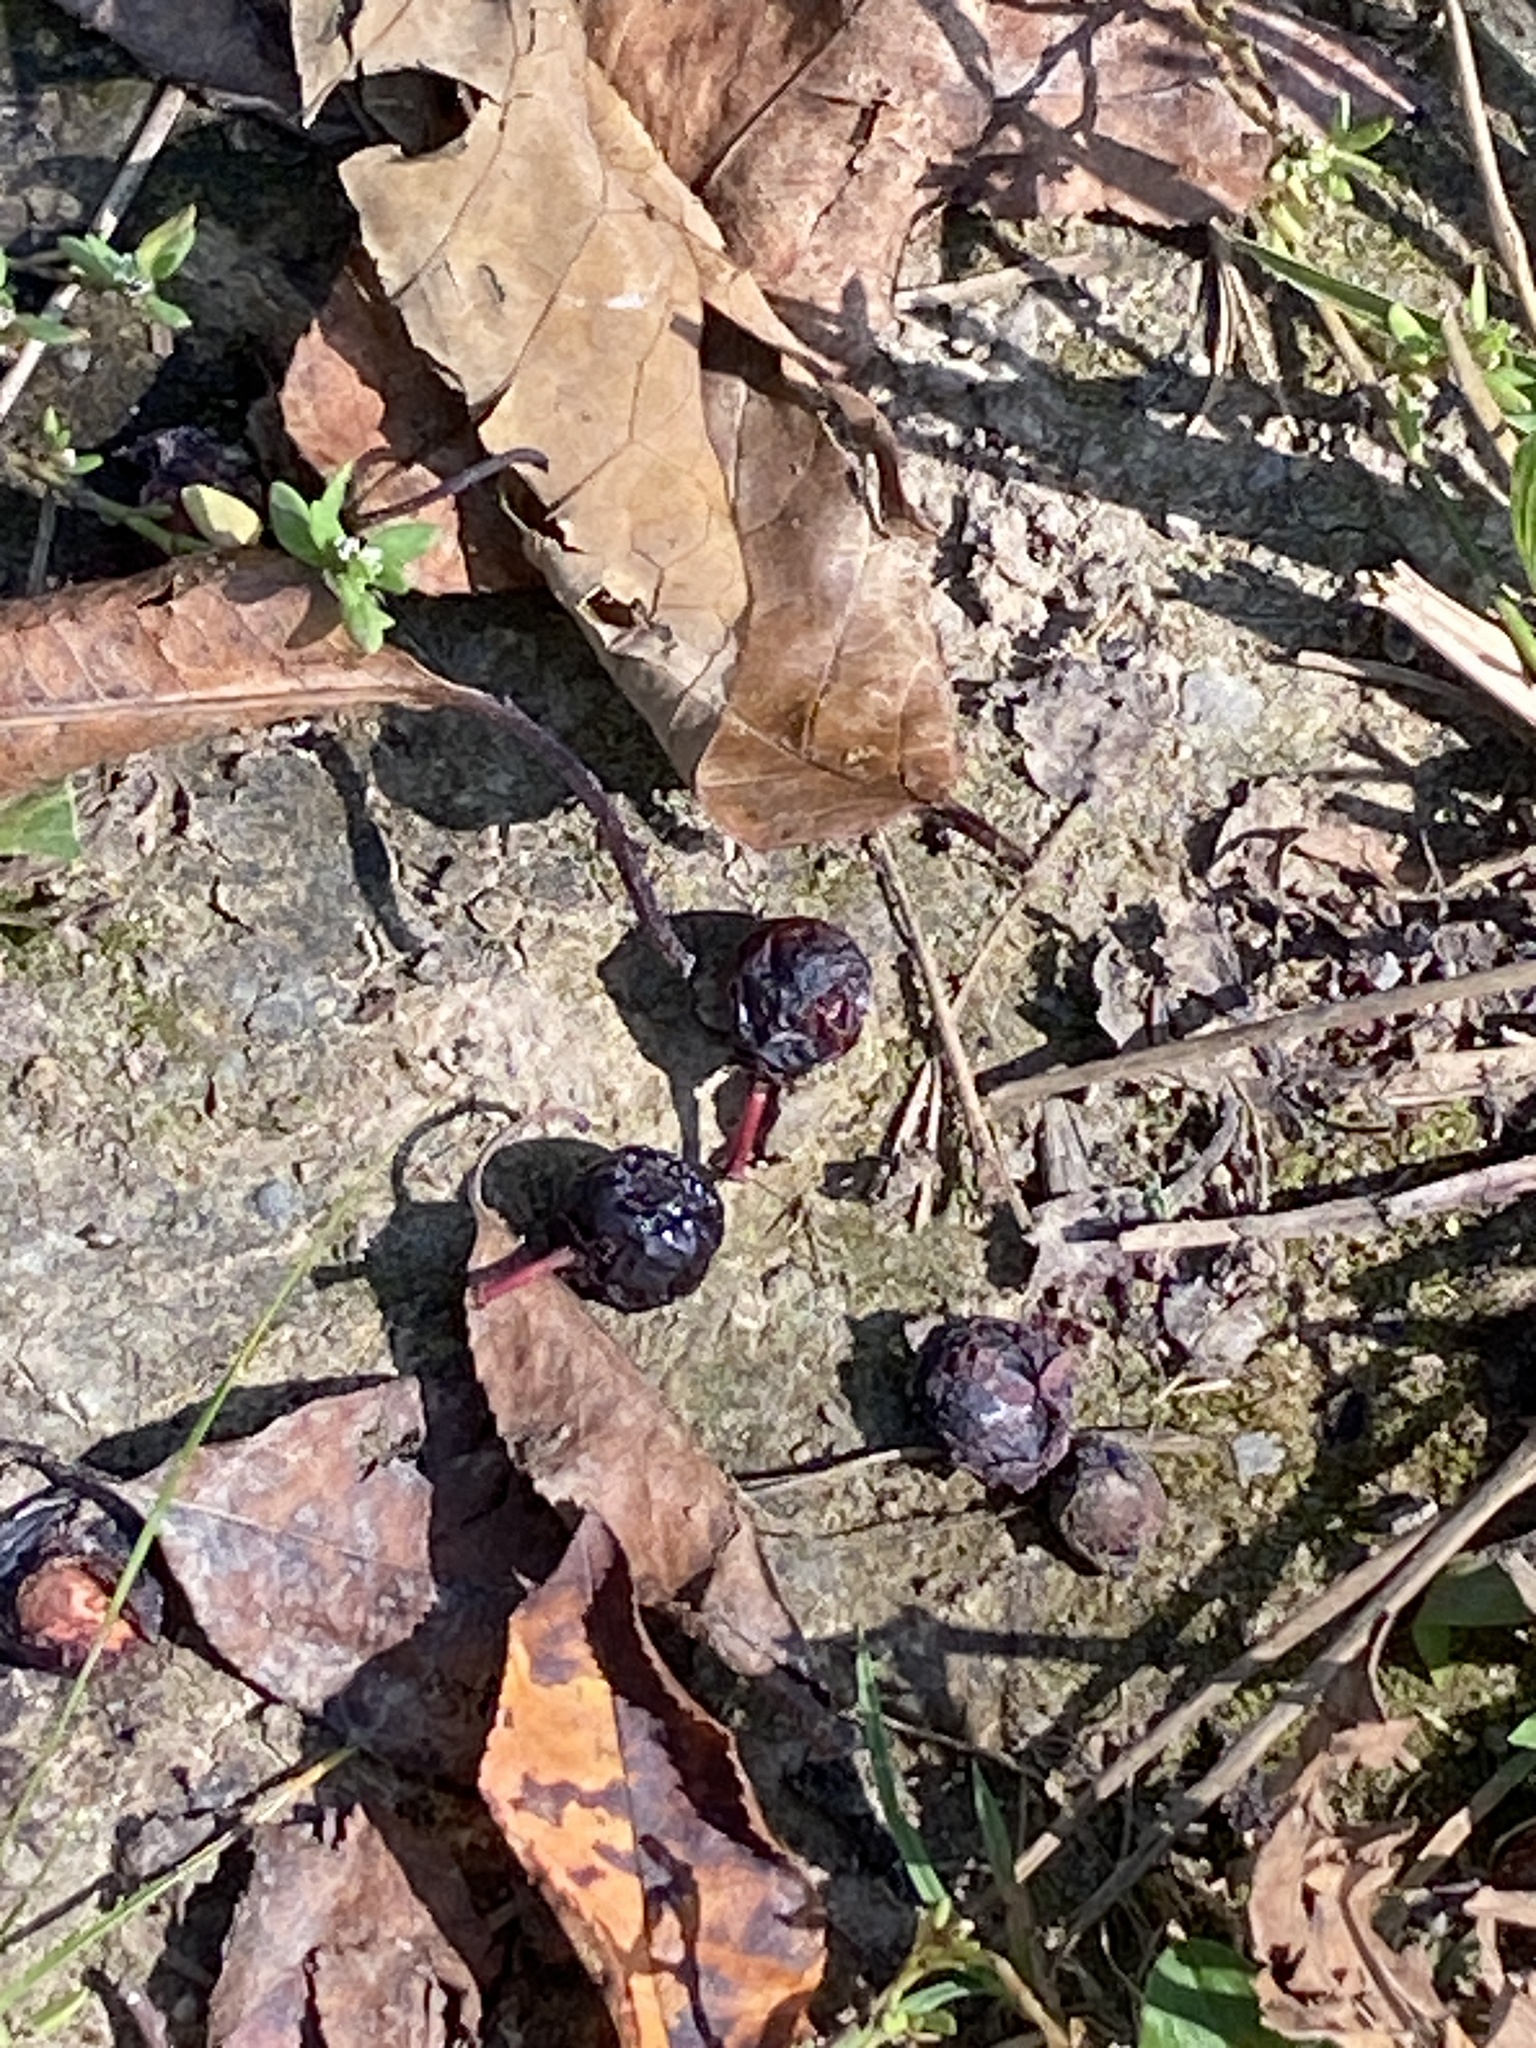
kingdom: Plantae
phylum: Tracheophyta
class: Magnoliopsida
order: Rosales
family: Rosaceae
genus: Prunus
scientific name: Prunus serotina
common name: Black cherry
